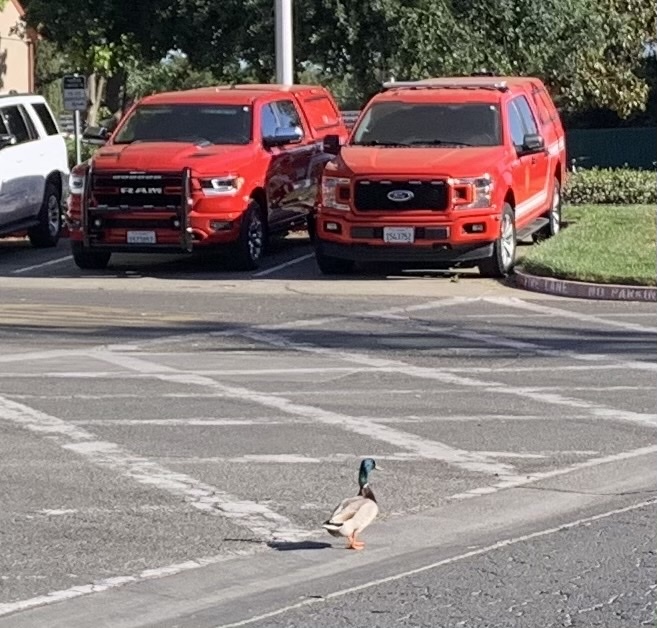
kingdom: Animalia
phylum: Chordata
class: Aves
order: Anseriformes
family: Anatidae
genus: Anas
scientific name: Anas platyrhynchos
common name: Mallard
